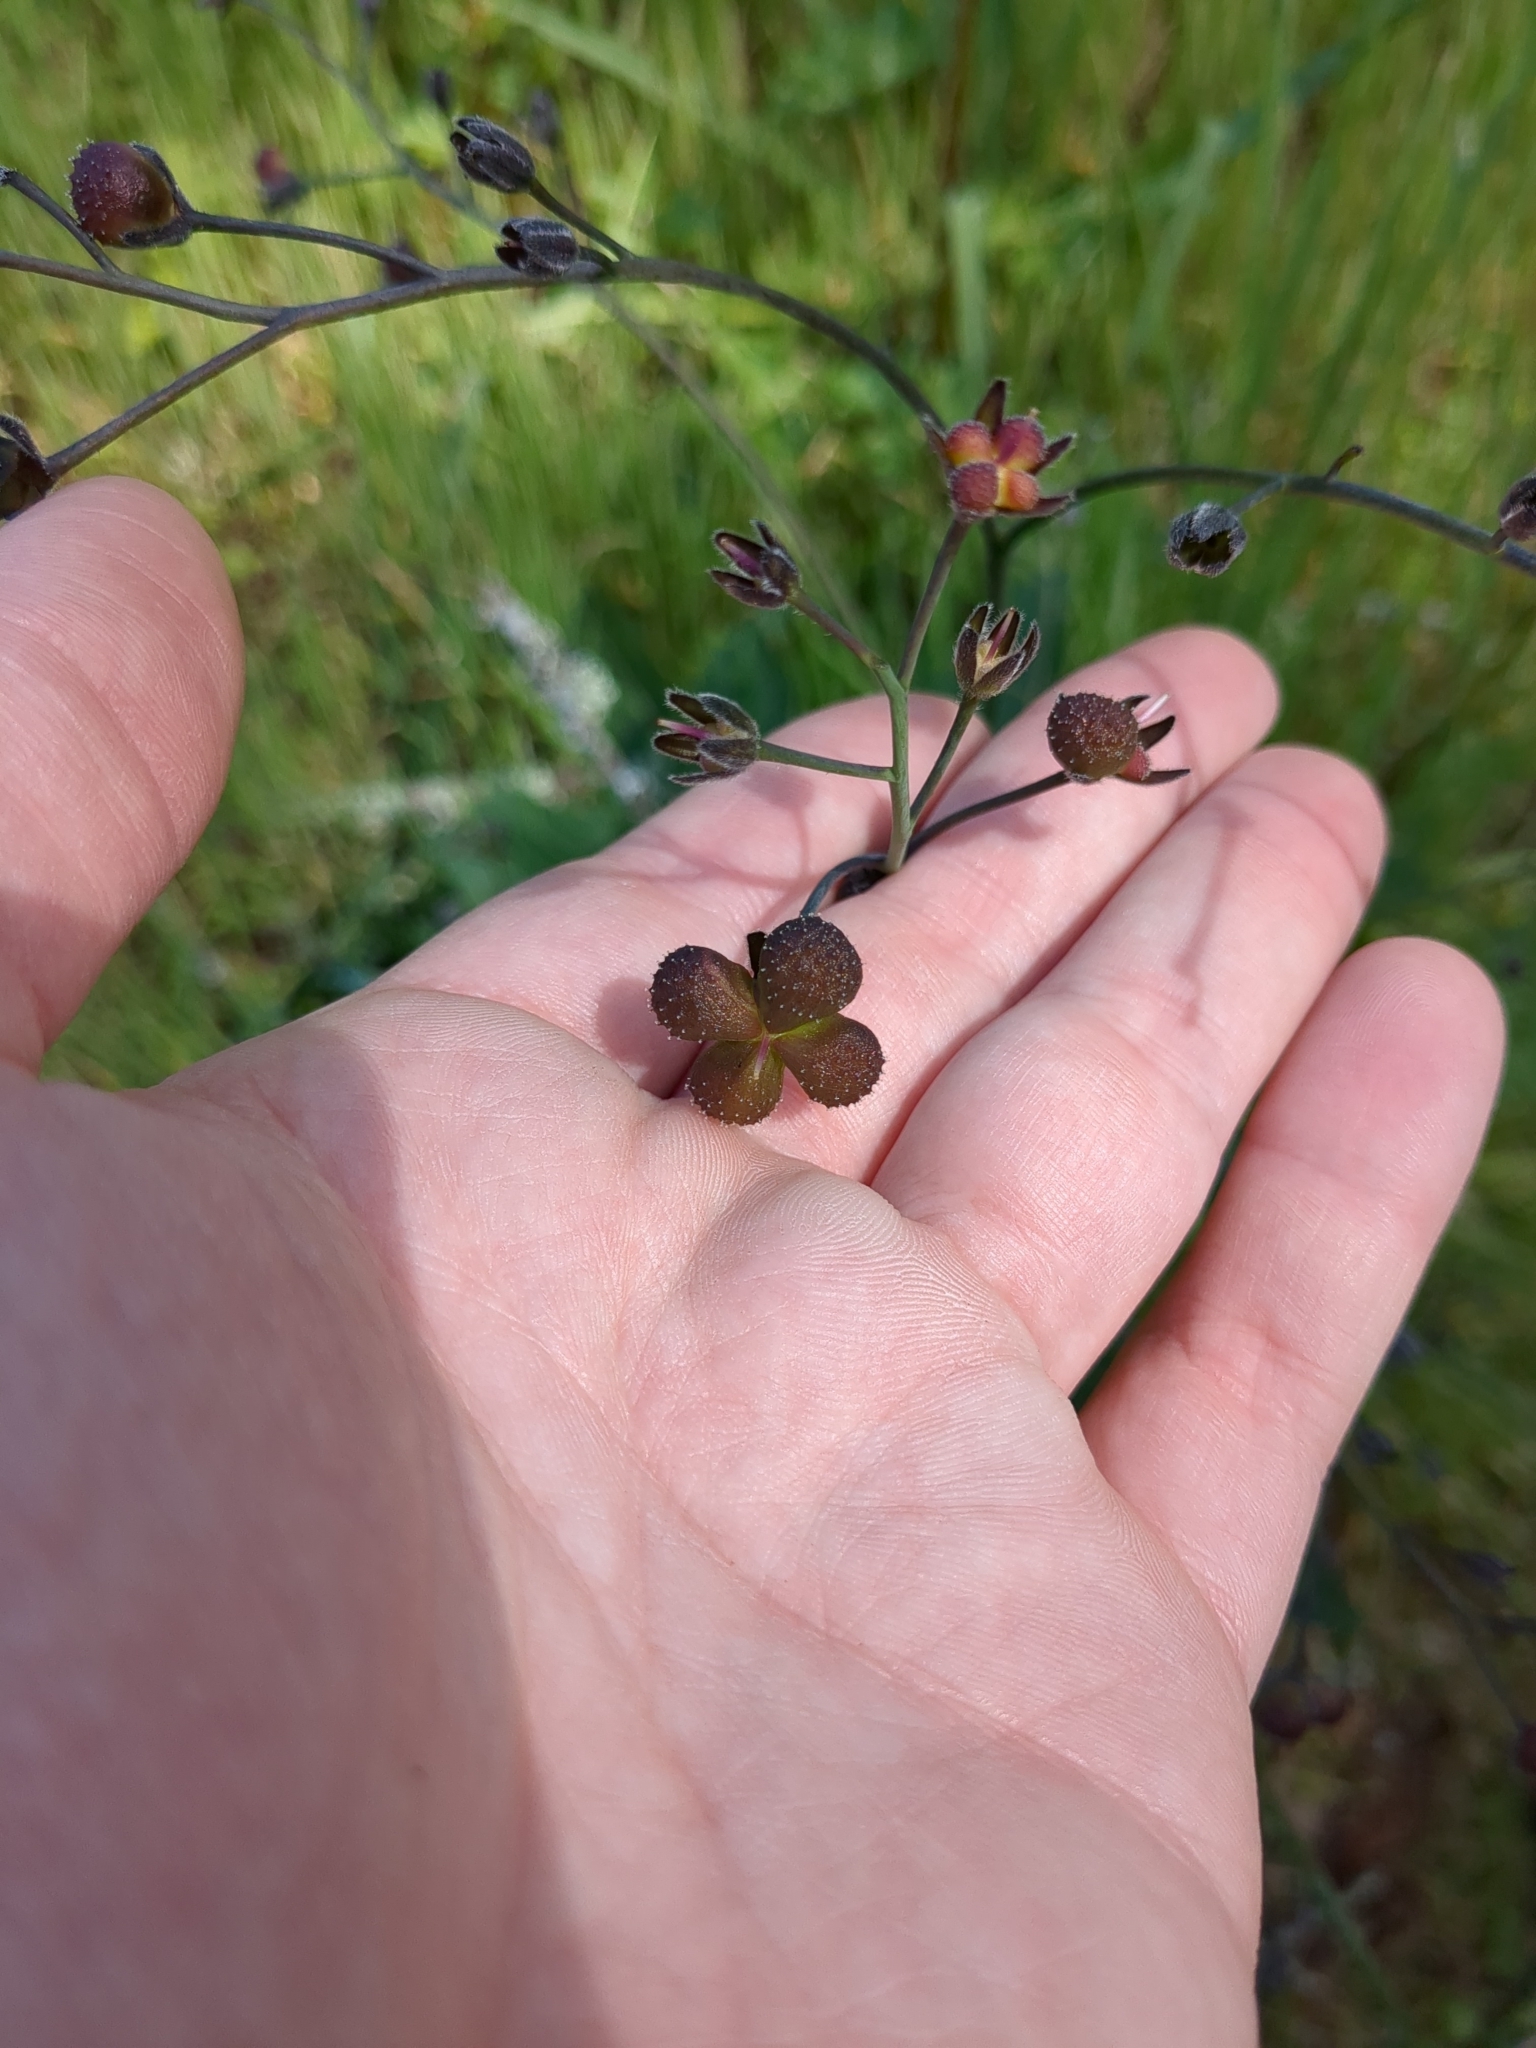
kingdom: Plantae
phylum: Tracheophyta
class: Magnoliopsida
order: Boraginales
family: Boraginaceae
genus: Adelinia
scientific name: Adelinia grande
